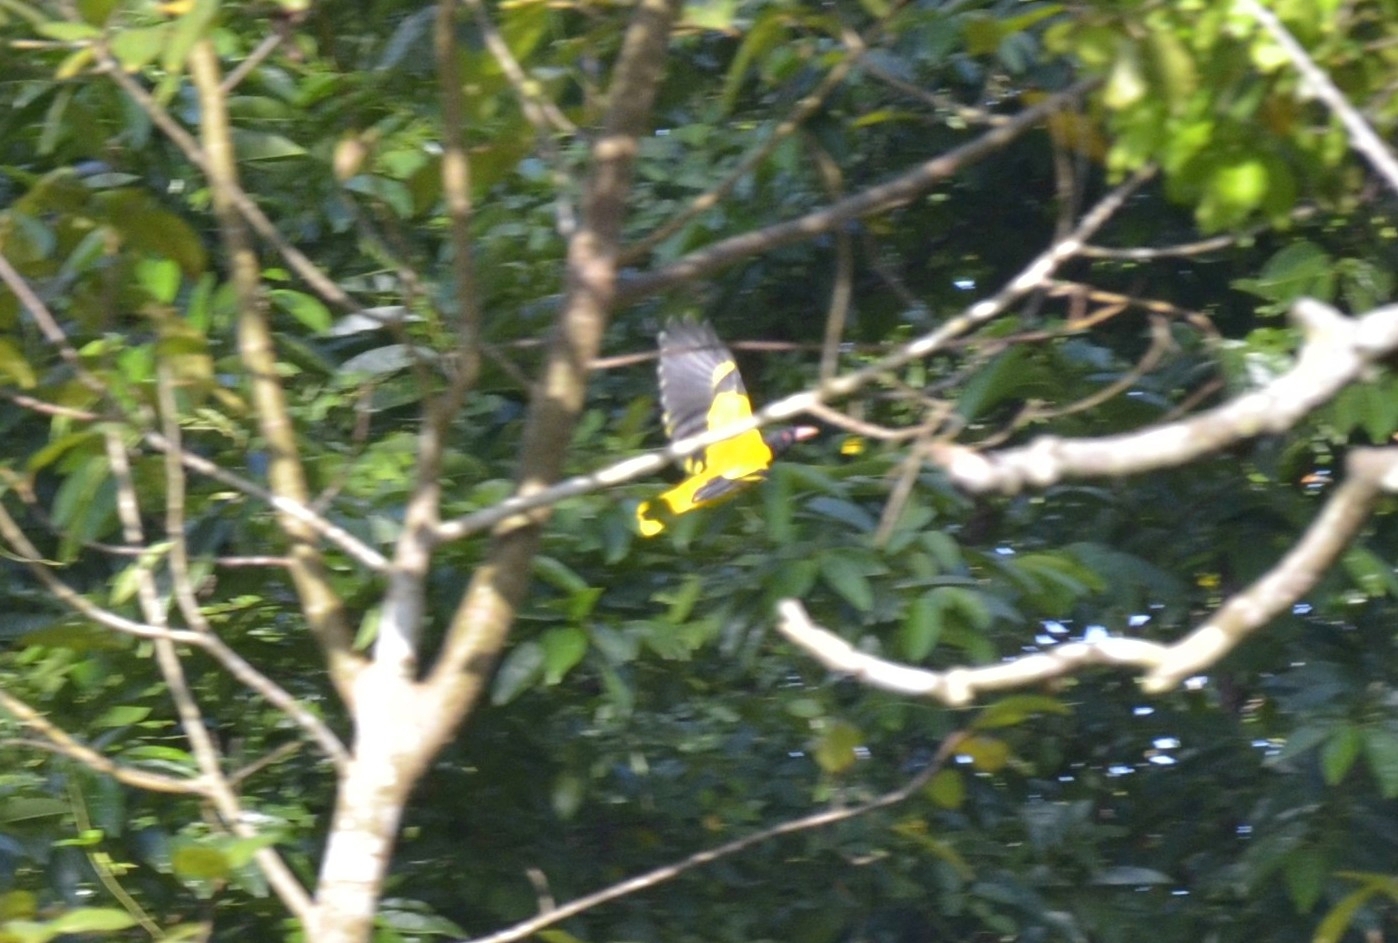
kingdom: Animalia
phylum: Chordata
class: Aves
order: Passeriformes
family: Oriolidae
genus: Oriolus
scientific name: Oriolus xanthornus
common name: Black-hooded oriole
